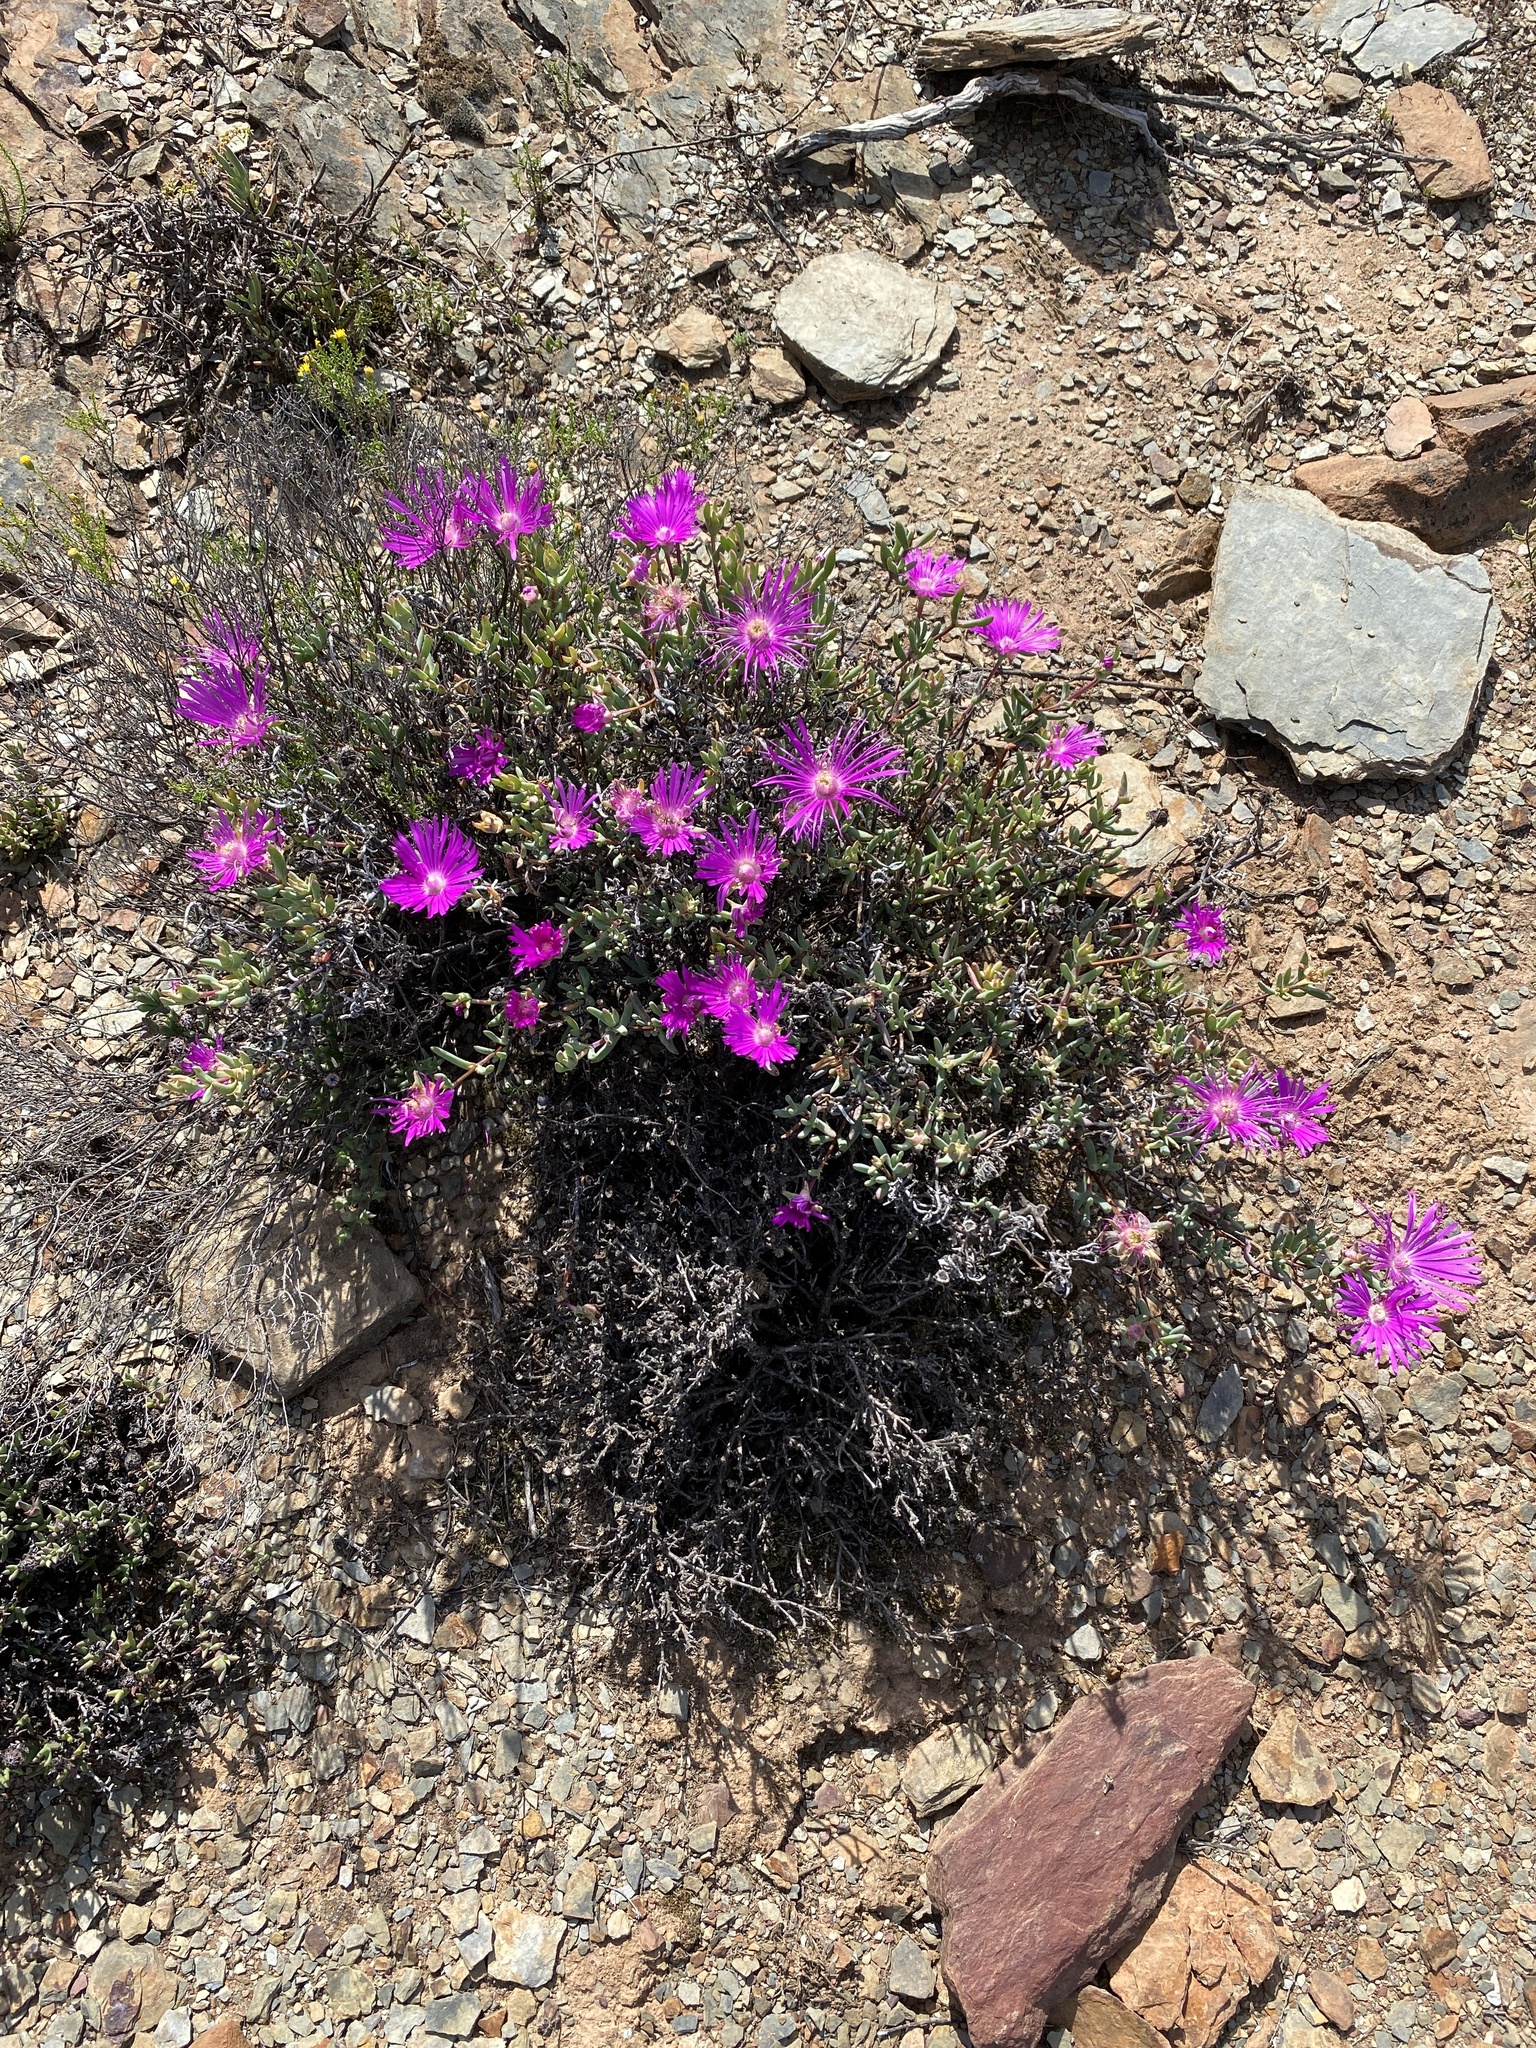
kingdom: Plantae
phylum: Tracheophyta
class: Magnoliopsida
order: Caryophyllales
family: Aizoaceae
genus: Lampranthus
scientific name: Lampranthus haworthii
